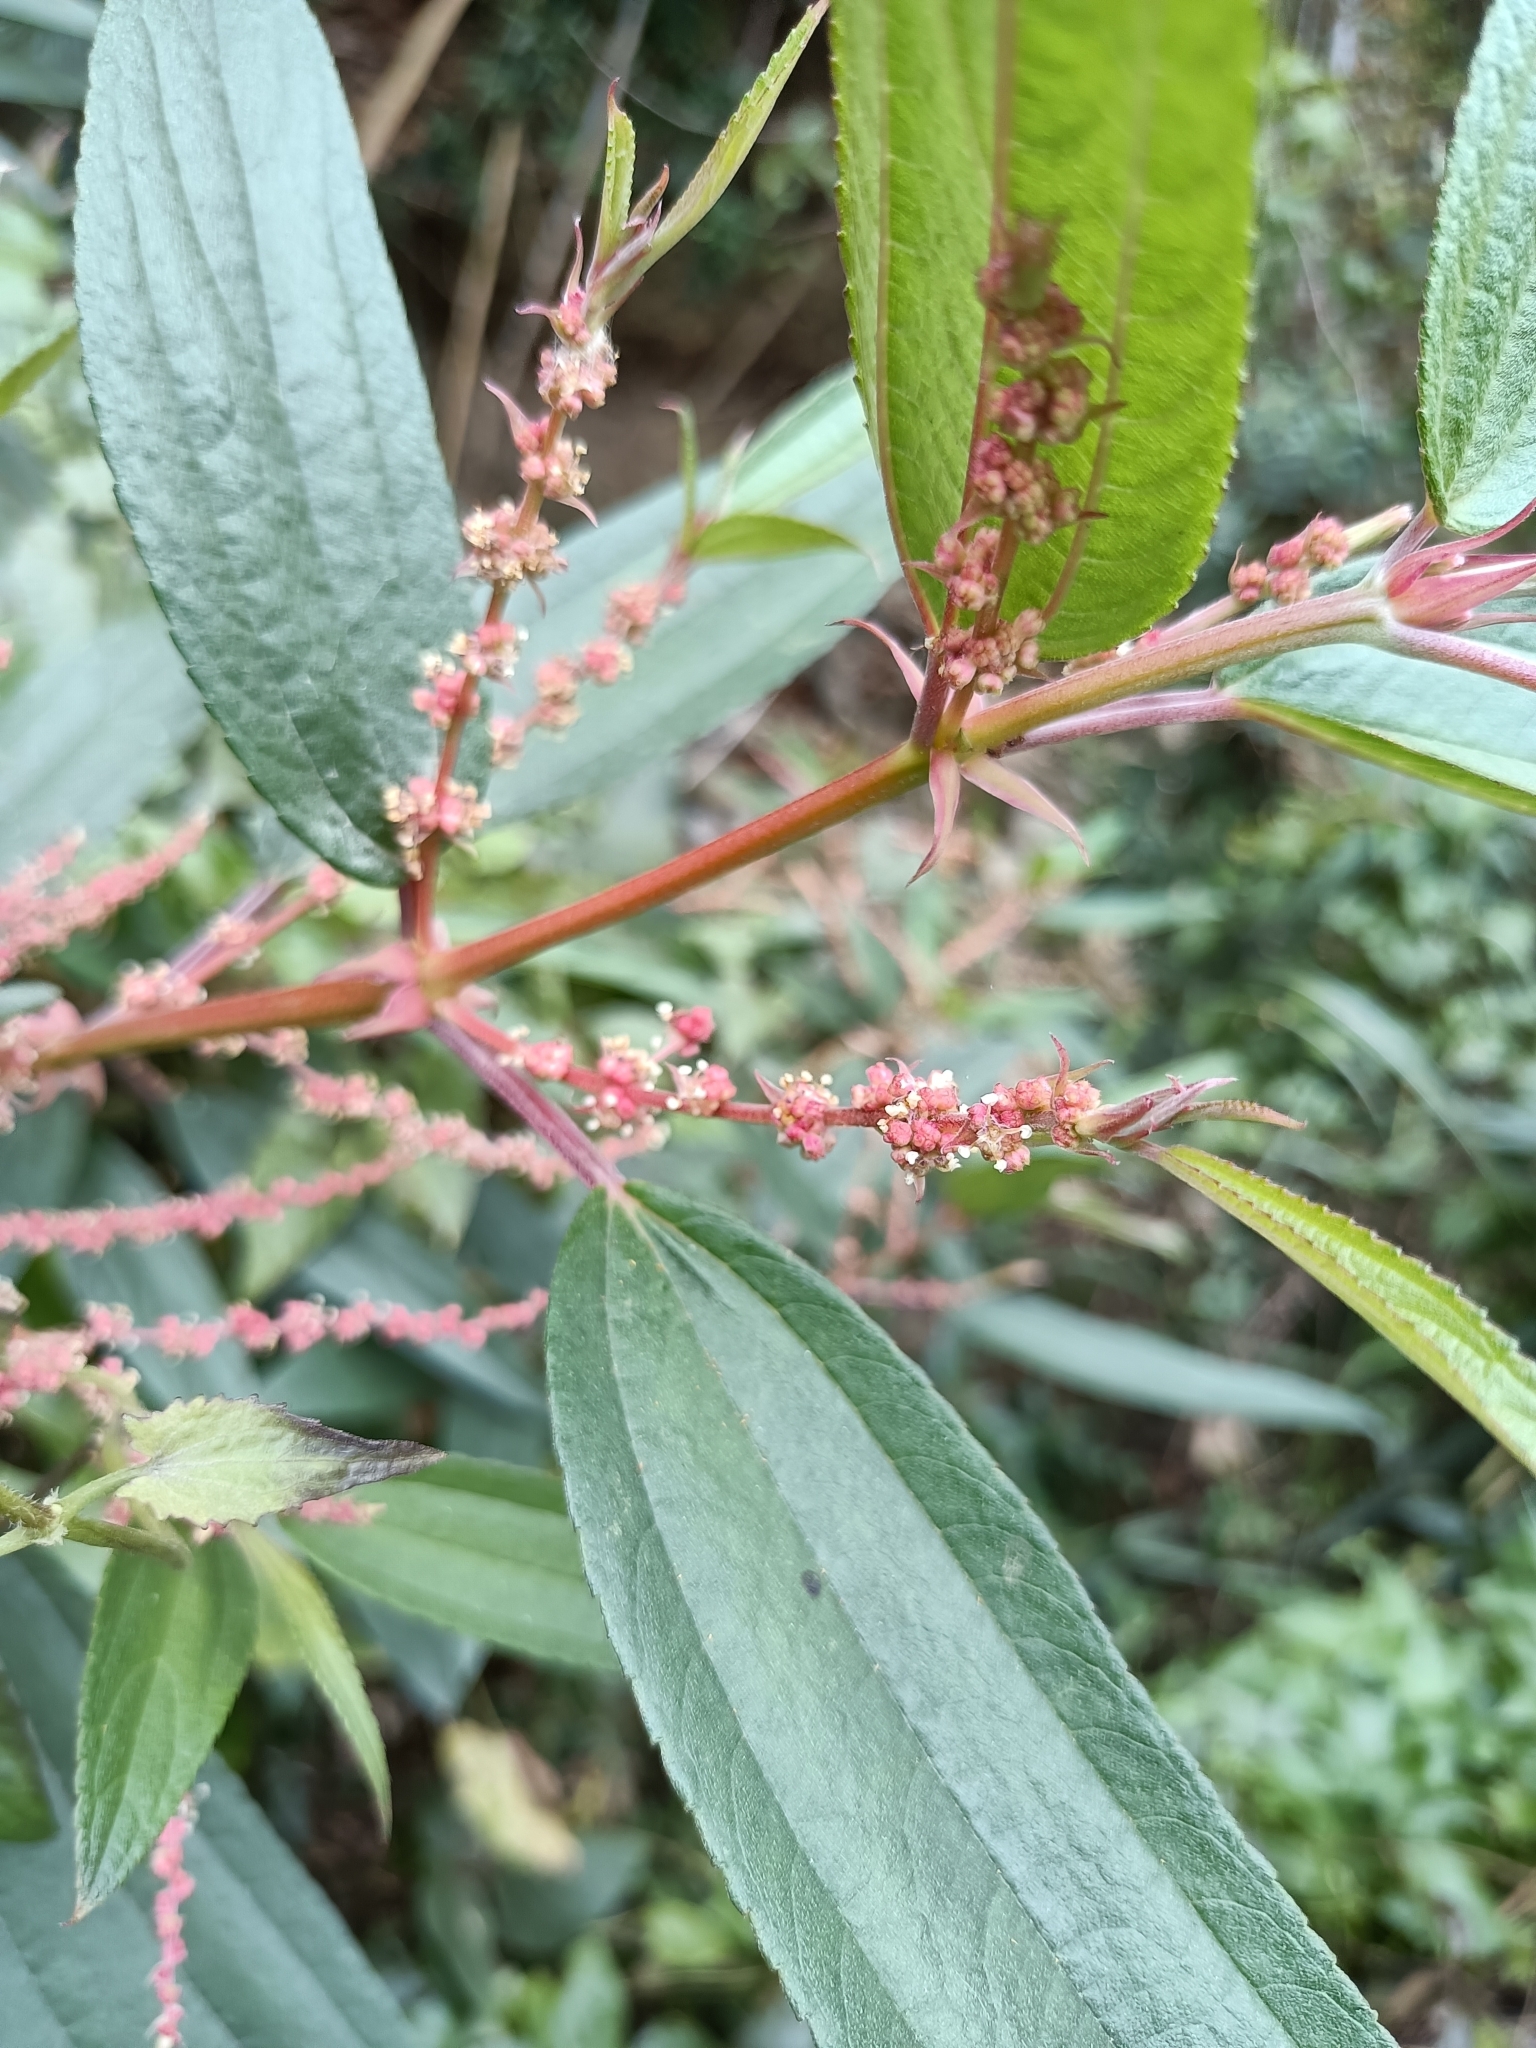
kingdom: Plantae
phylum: Tracheophyta
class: Magnoliopsida
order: Rosales
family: Urticaceae
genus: Boehmeria
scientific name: Boehmeria densiflora
